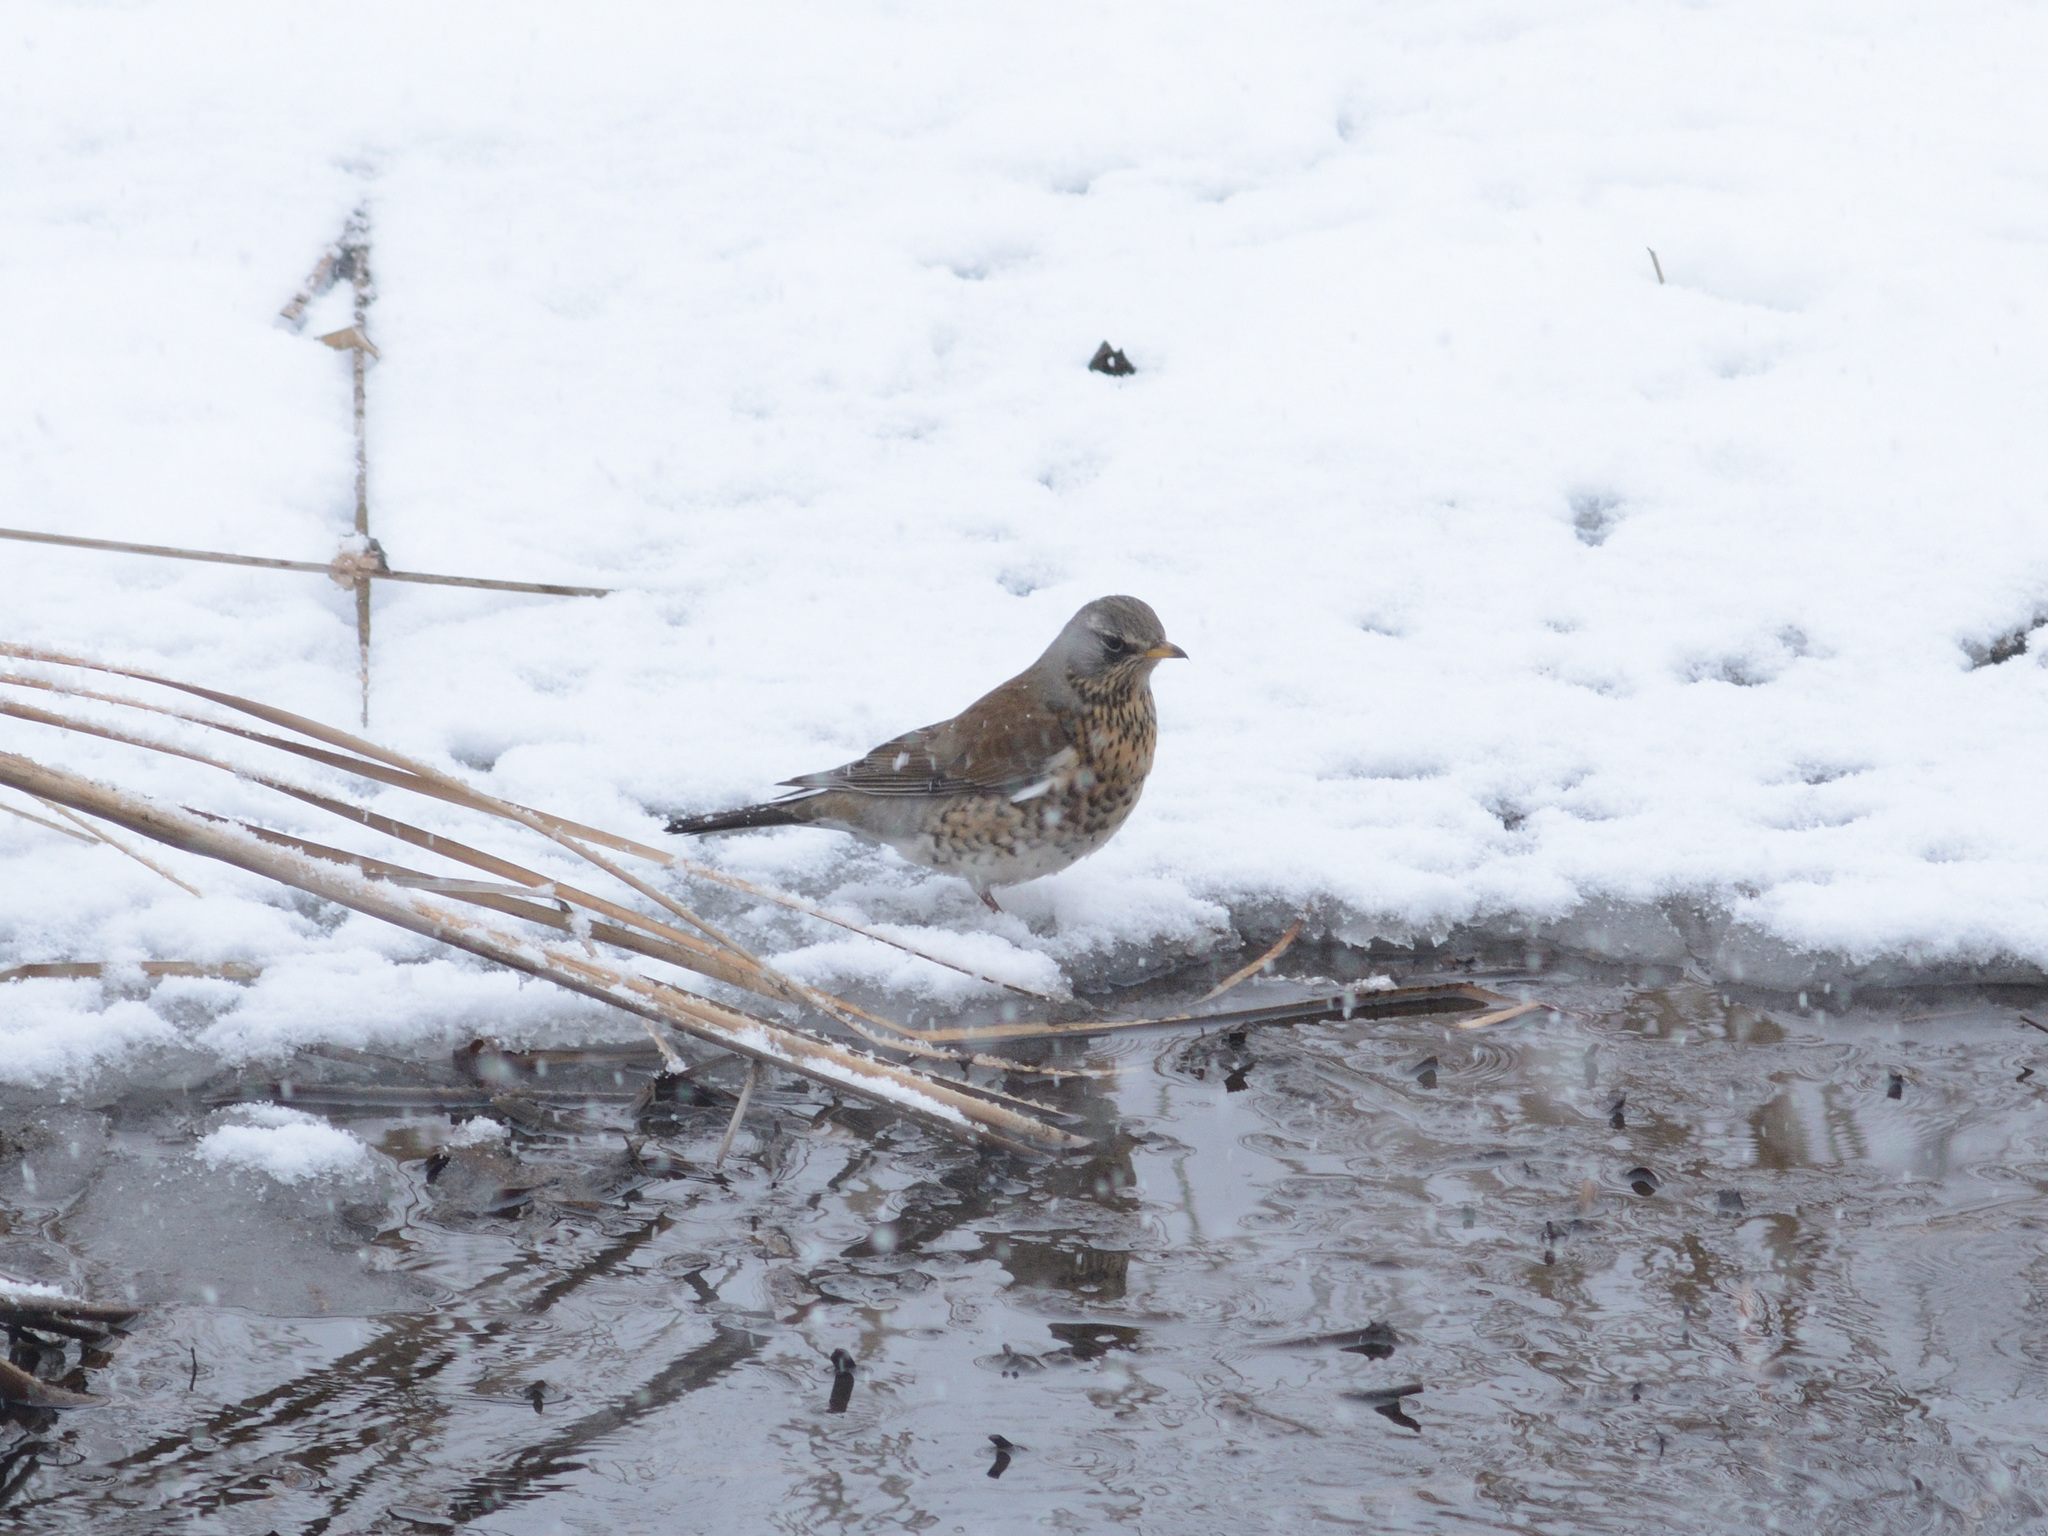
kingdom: Animalia
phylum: Chordata
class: Aves
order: Passeriformes
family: Turdidae
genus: Turdus
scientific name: Turdus pilaris
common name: Fieldfare
